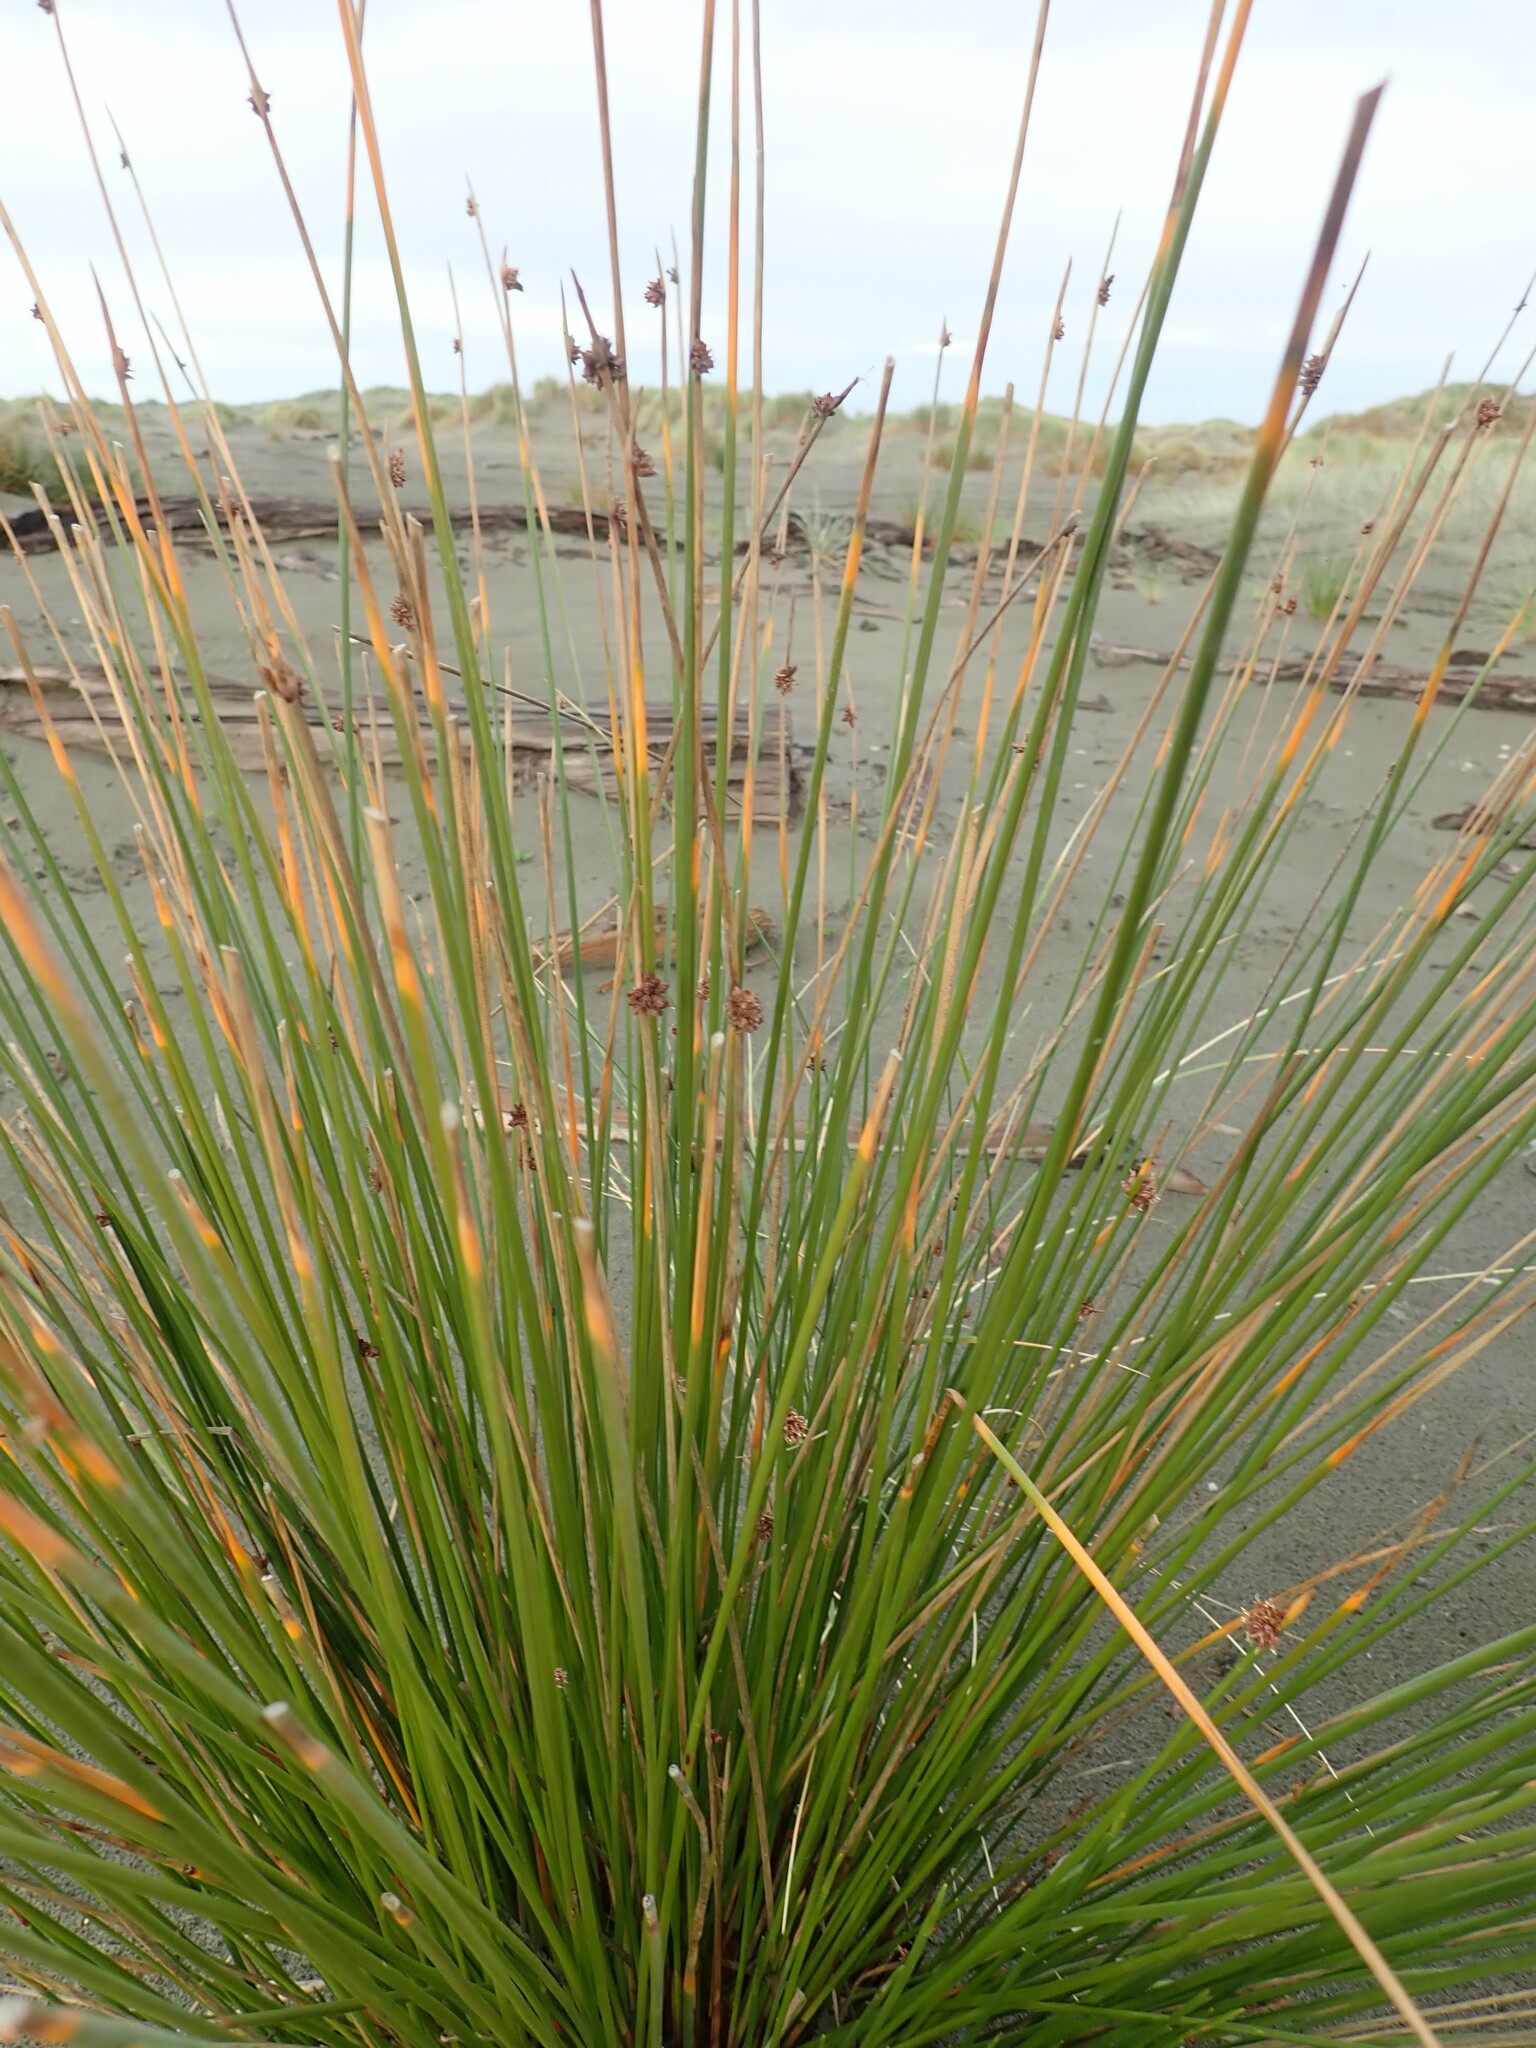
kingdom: Plantae
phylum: Tracheophyta
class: Liliopsida
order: Poales
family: Cyperaceae
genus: Ficinia
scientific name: Ficinia nodosa
